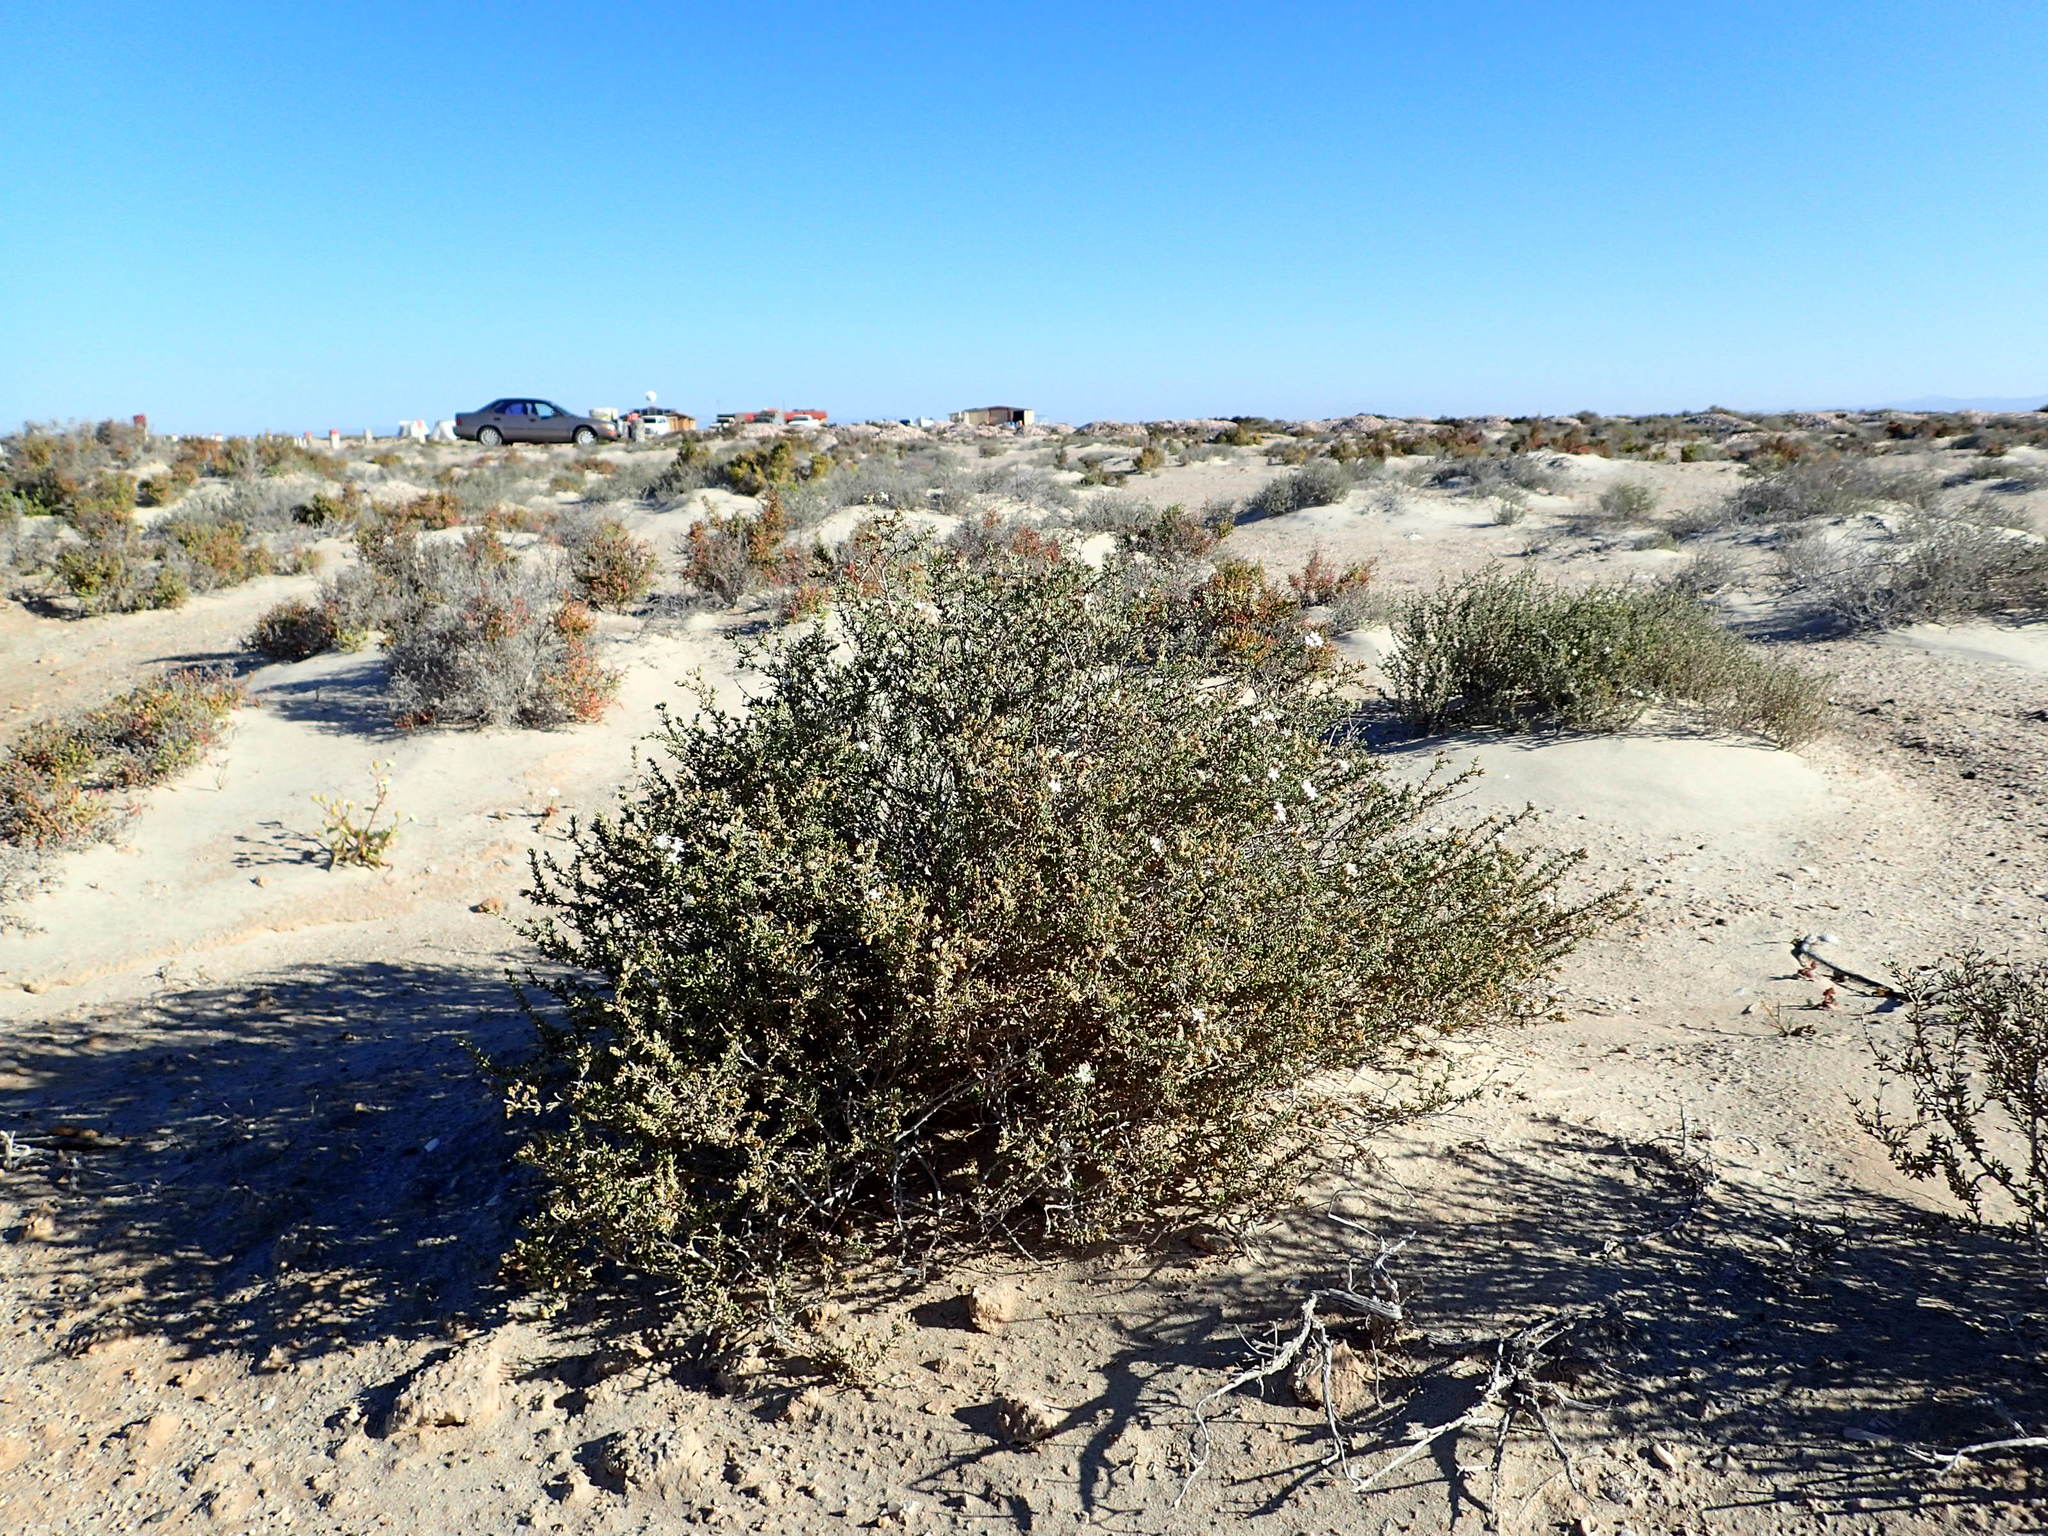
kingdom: Plantae
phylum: Tracheophyta
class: Magnoliopsida
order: Caryophyllales
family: Frankeniaceae
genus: Frankenia
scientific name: Frankenia palmeri
